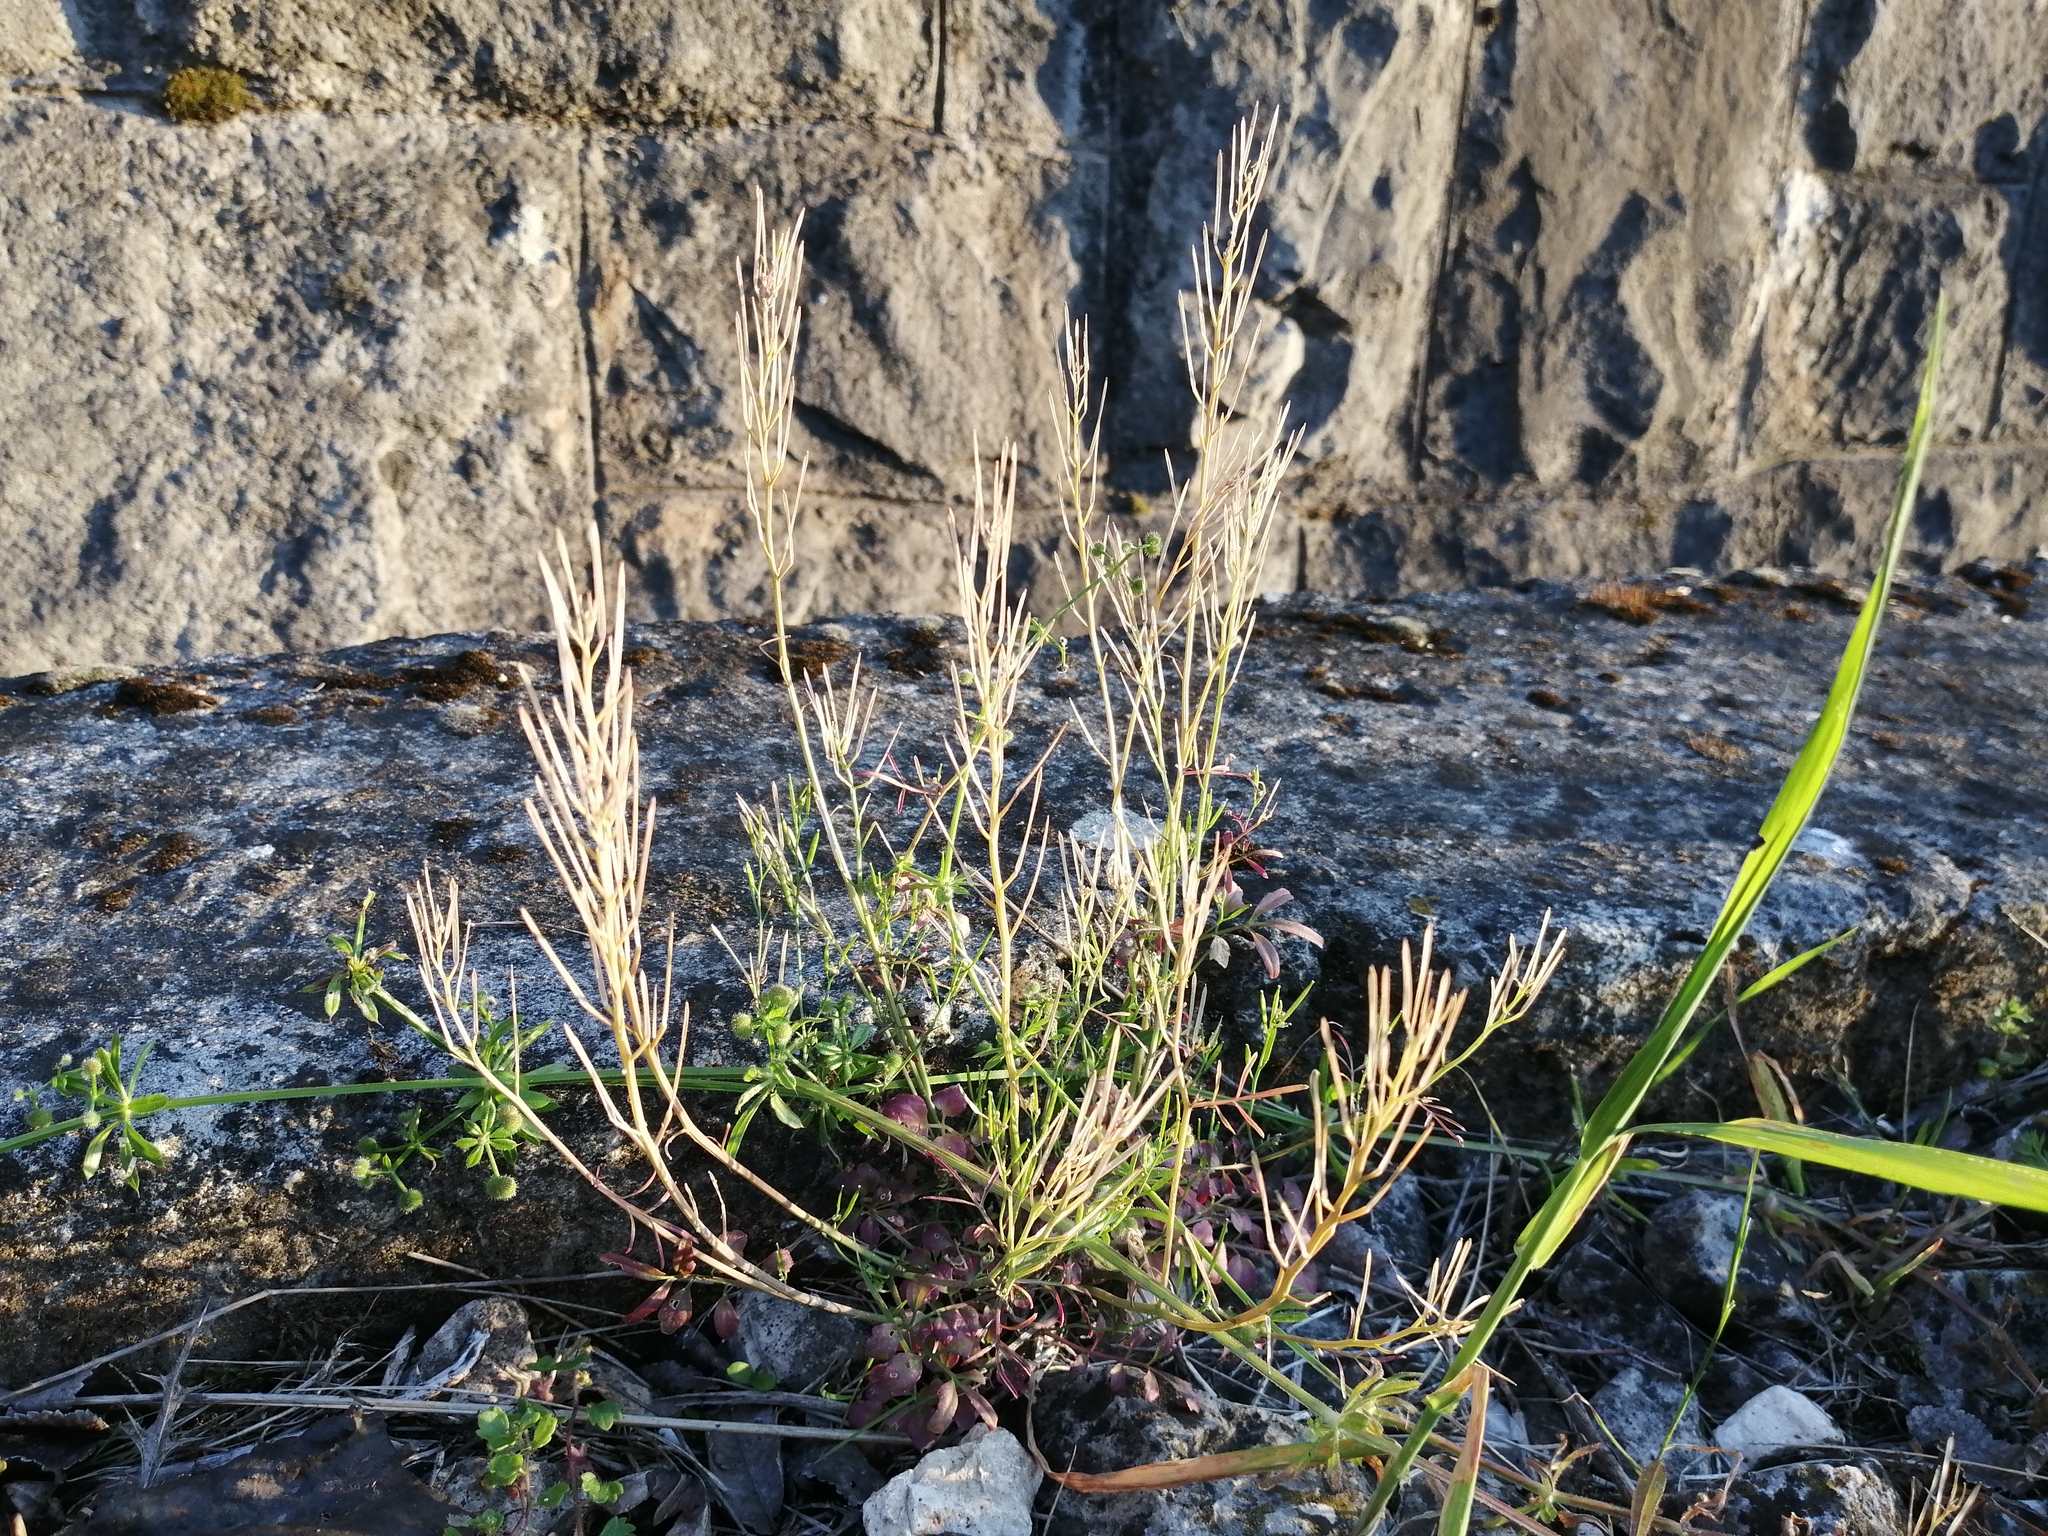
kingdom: Plantae
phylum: Tracheophyta
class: Magnoliopsida
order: Brassicales
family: Brassicaceae
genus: Cardamine
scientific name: Cardamine hirsuta
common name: Hairy bittercress
